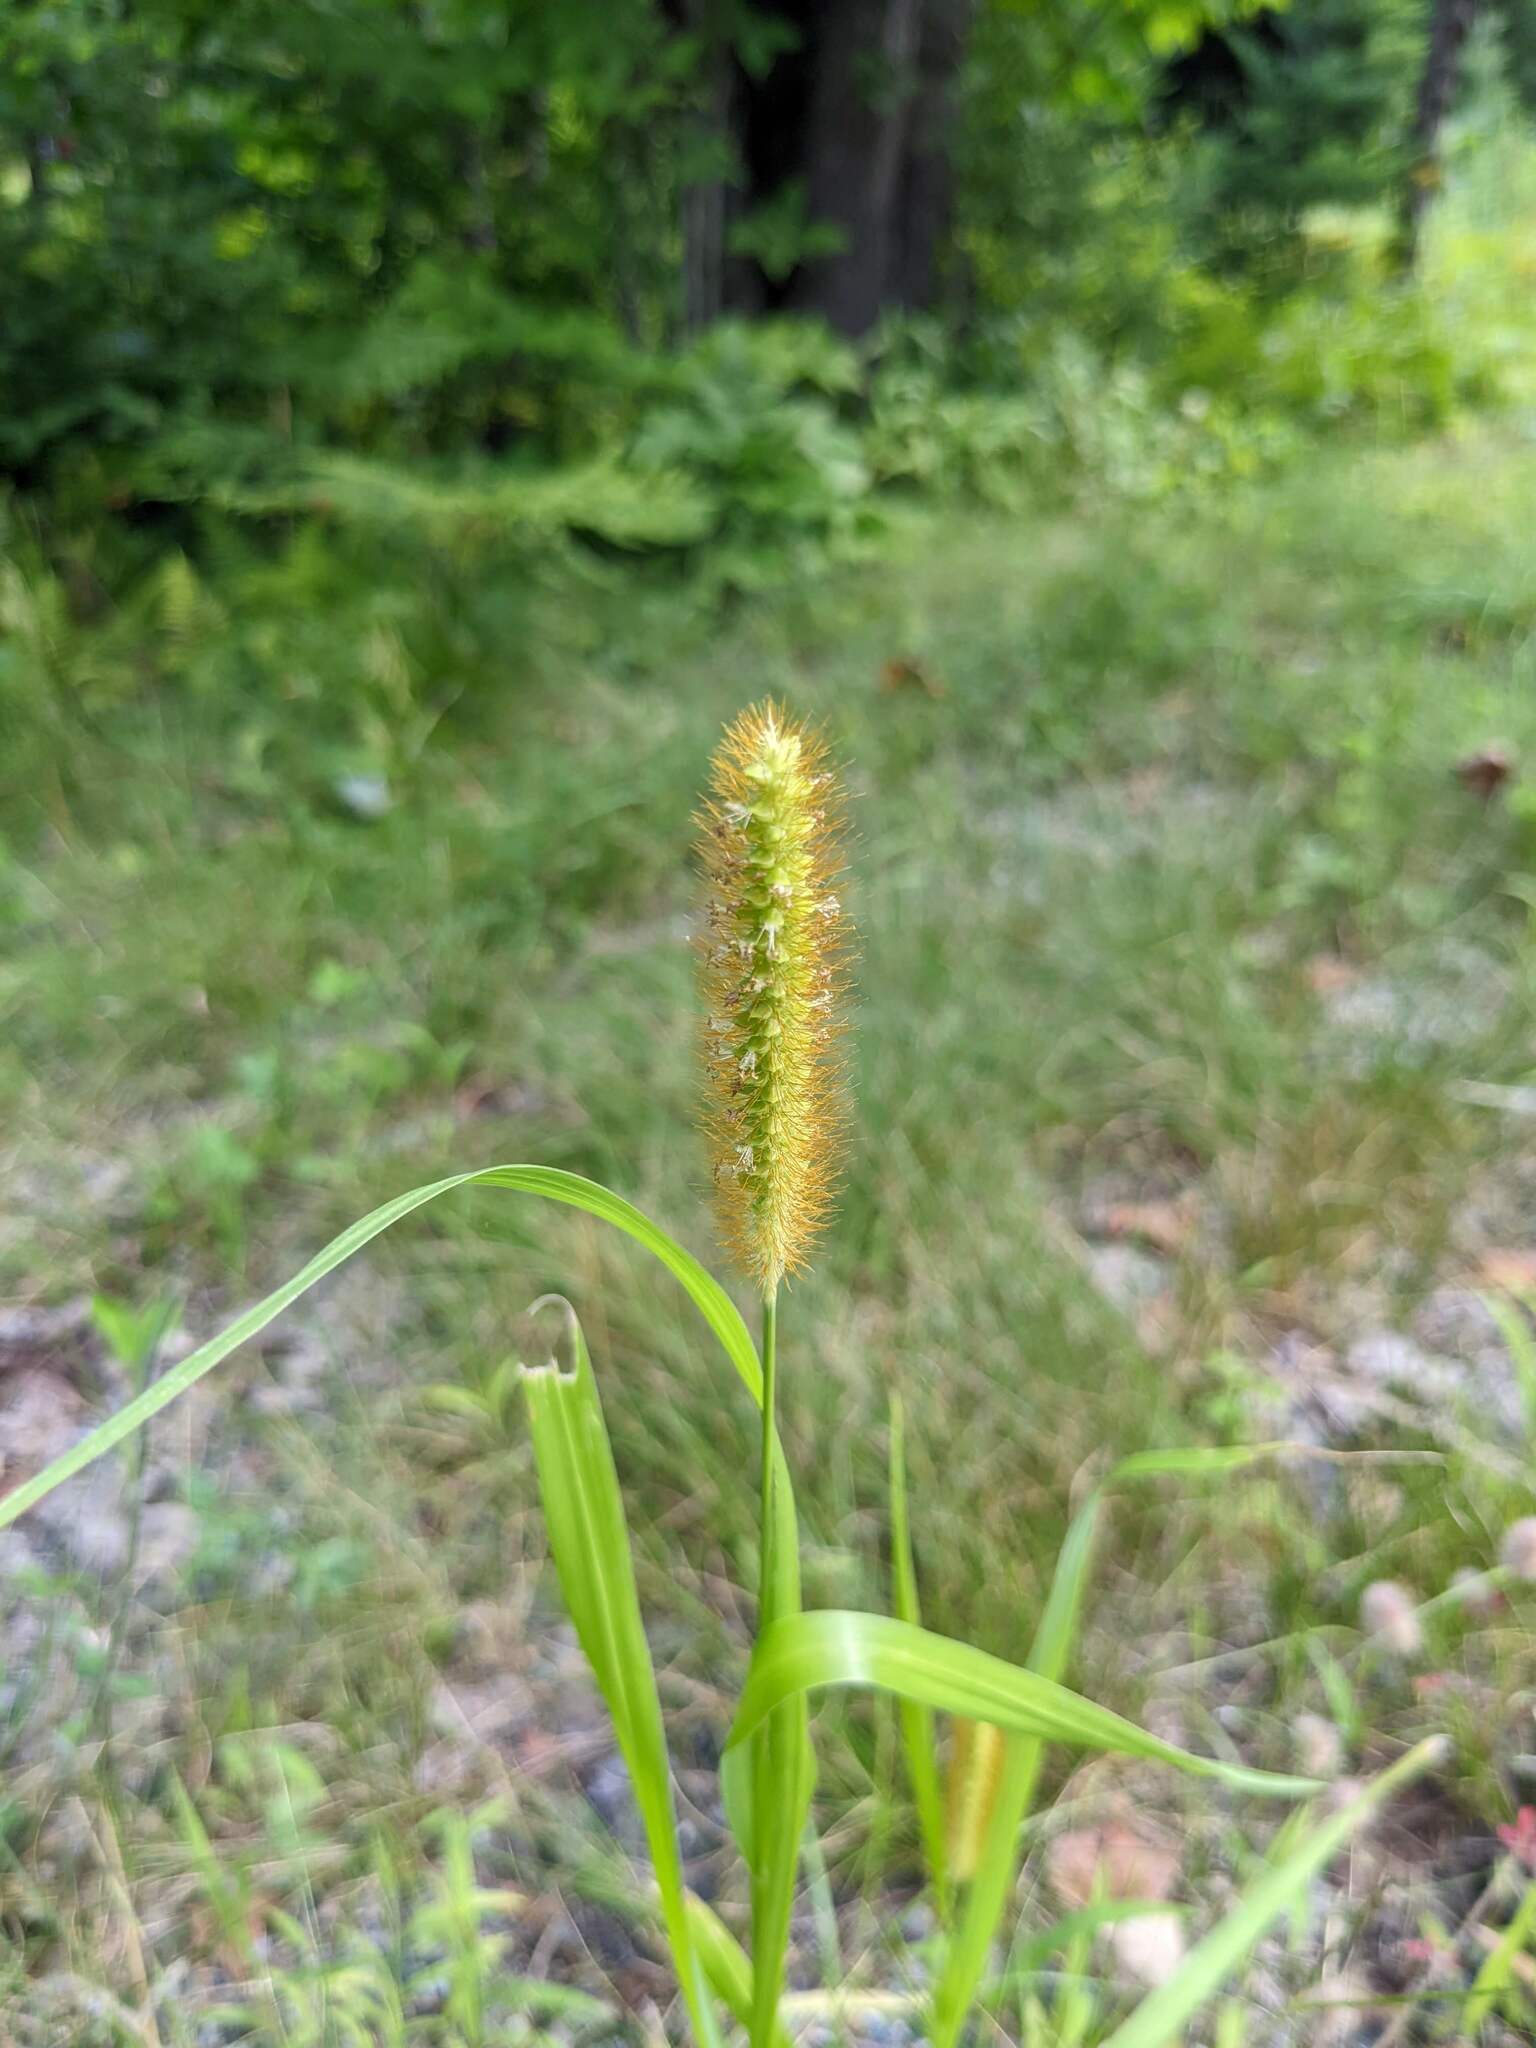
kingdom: Plantae
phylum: Tracheophyta
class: Liliopsida
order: Poales
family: Poaceae
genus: Setaria
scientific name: Setaria pumila
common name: Yellow bristle-grass
